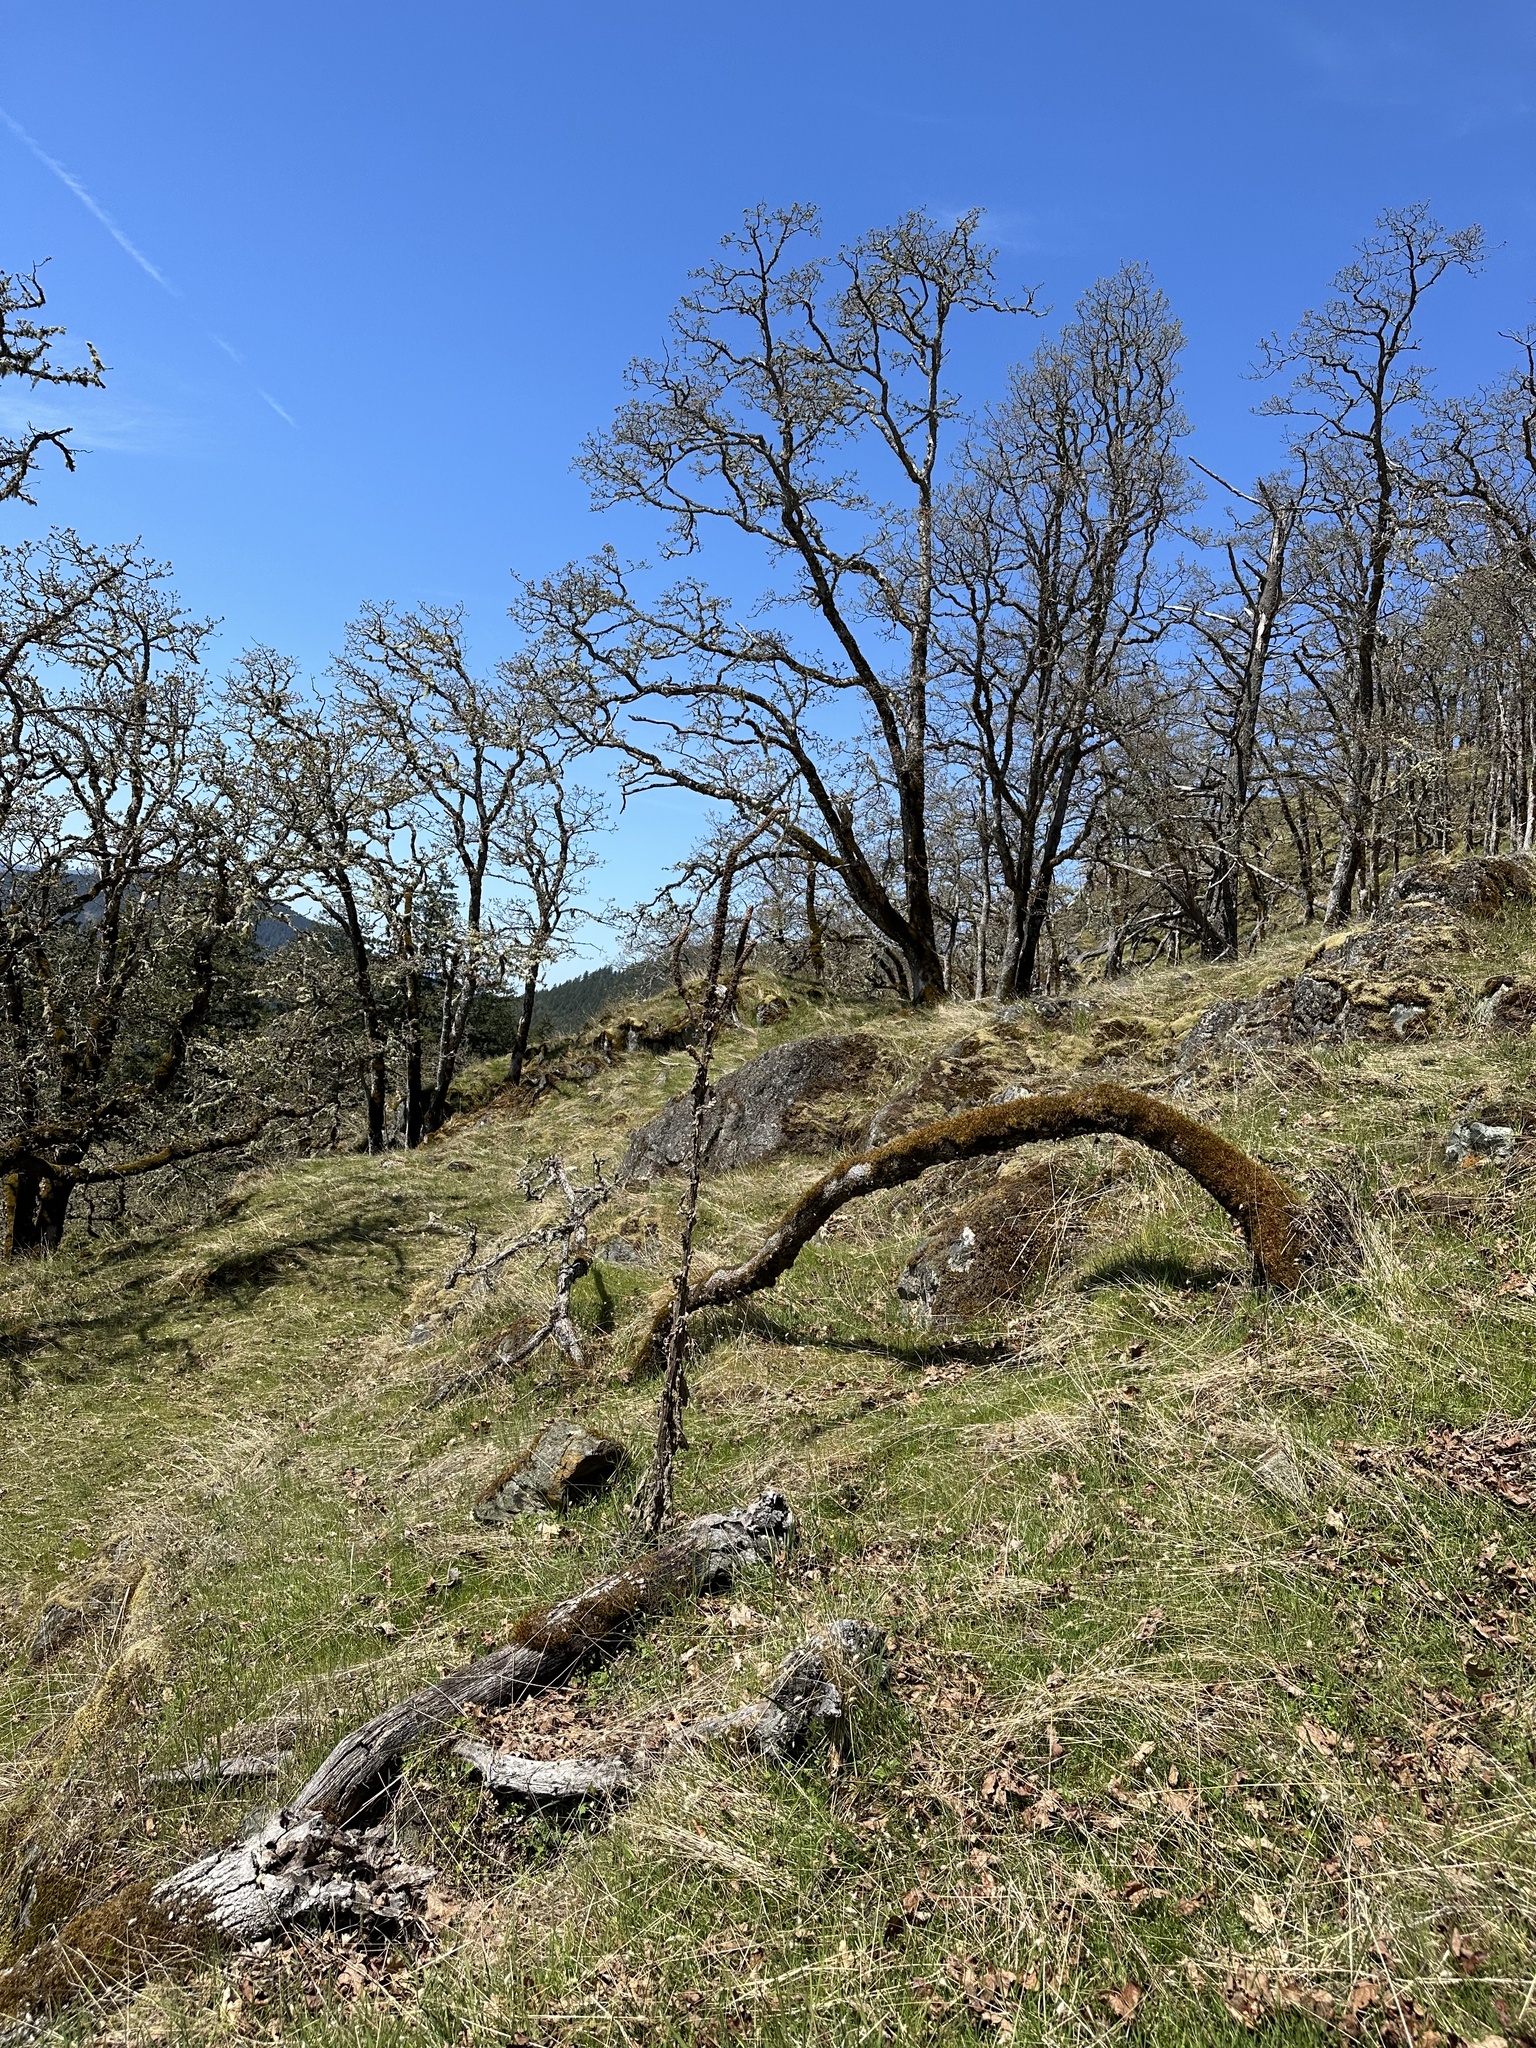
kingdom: Plantae
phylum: Tracheophyta
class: Magnoliopsida
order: Lamiales
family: Scrophulariaceae
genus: Verbascum
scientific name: Verbascum thapsus
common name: Common mullein
